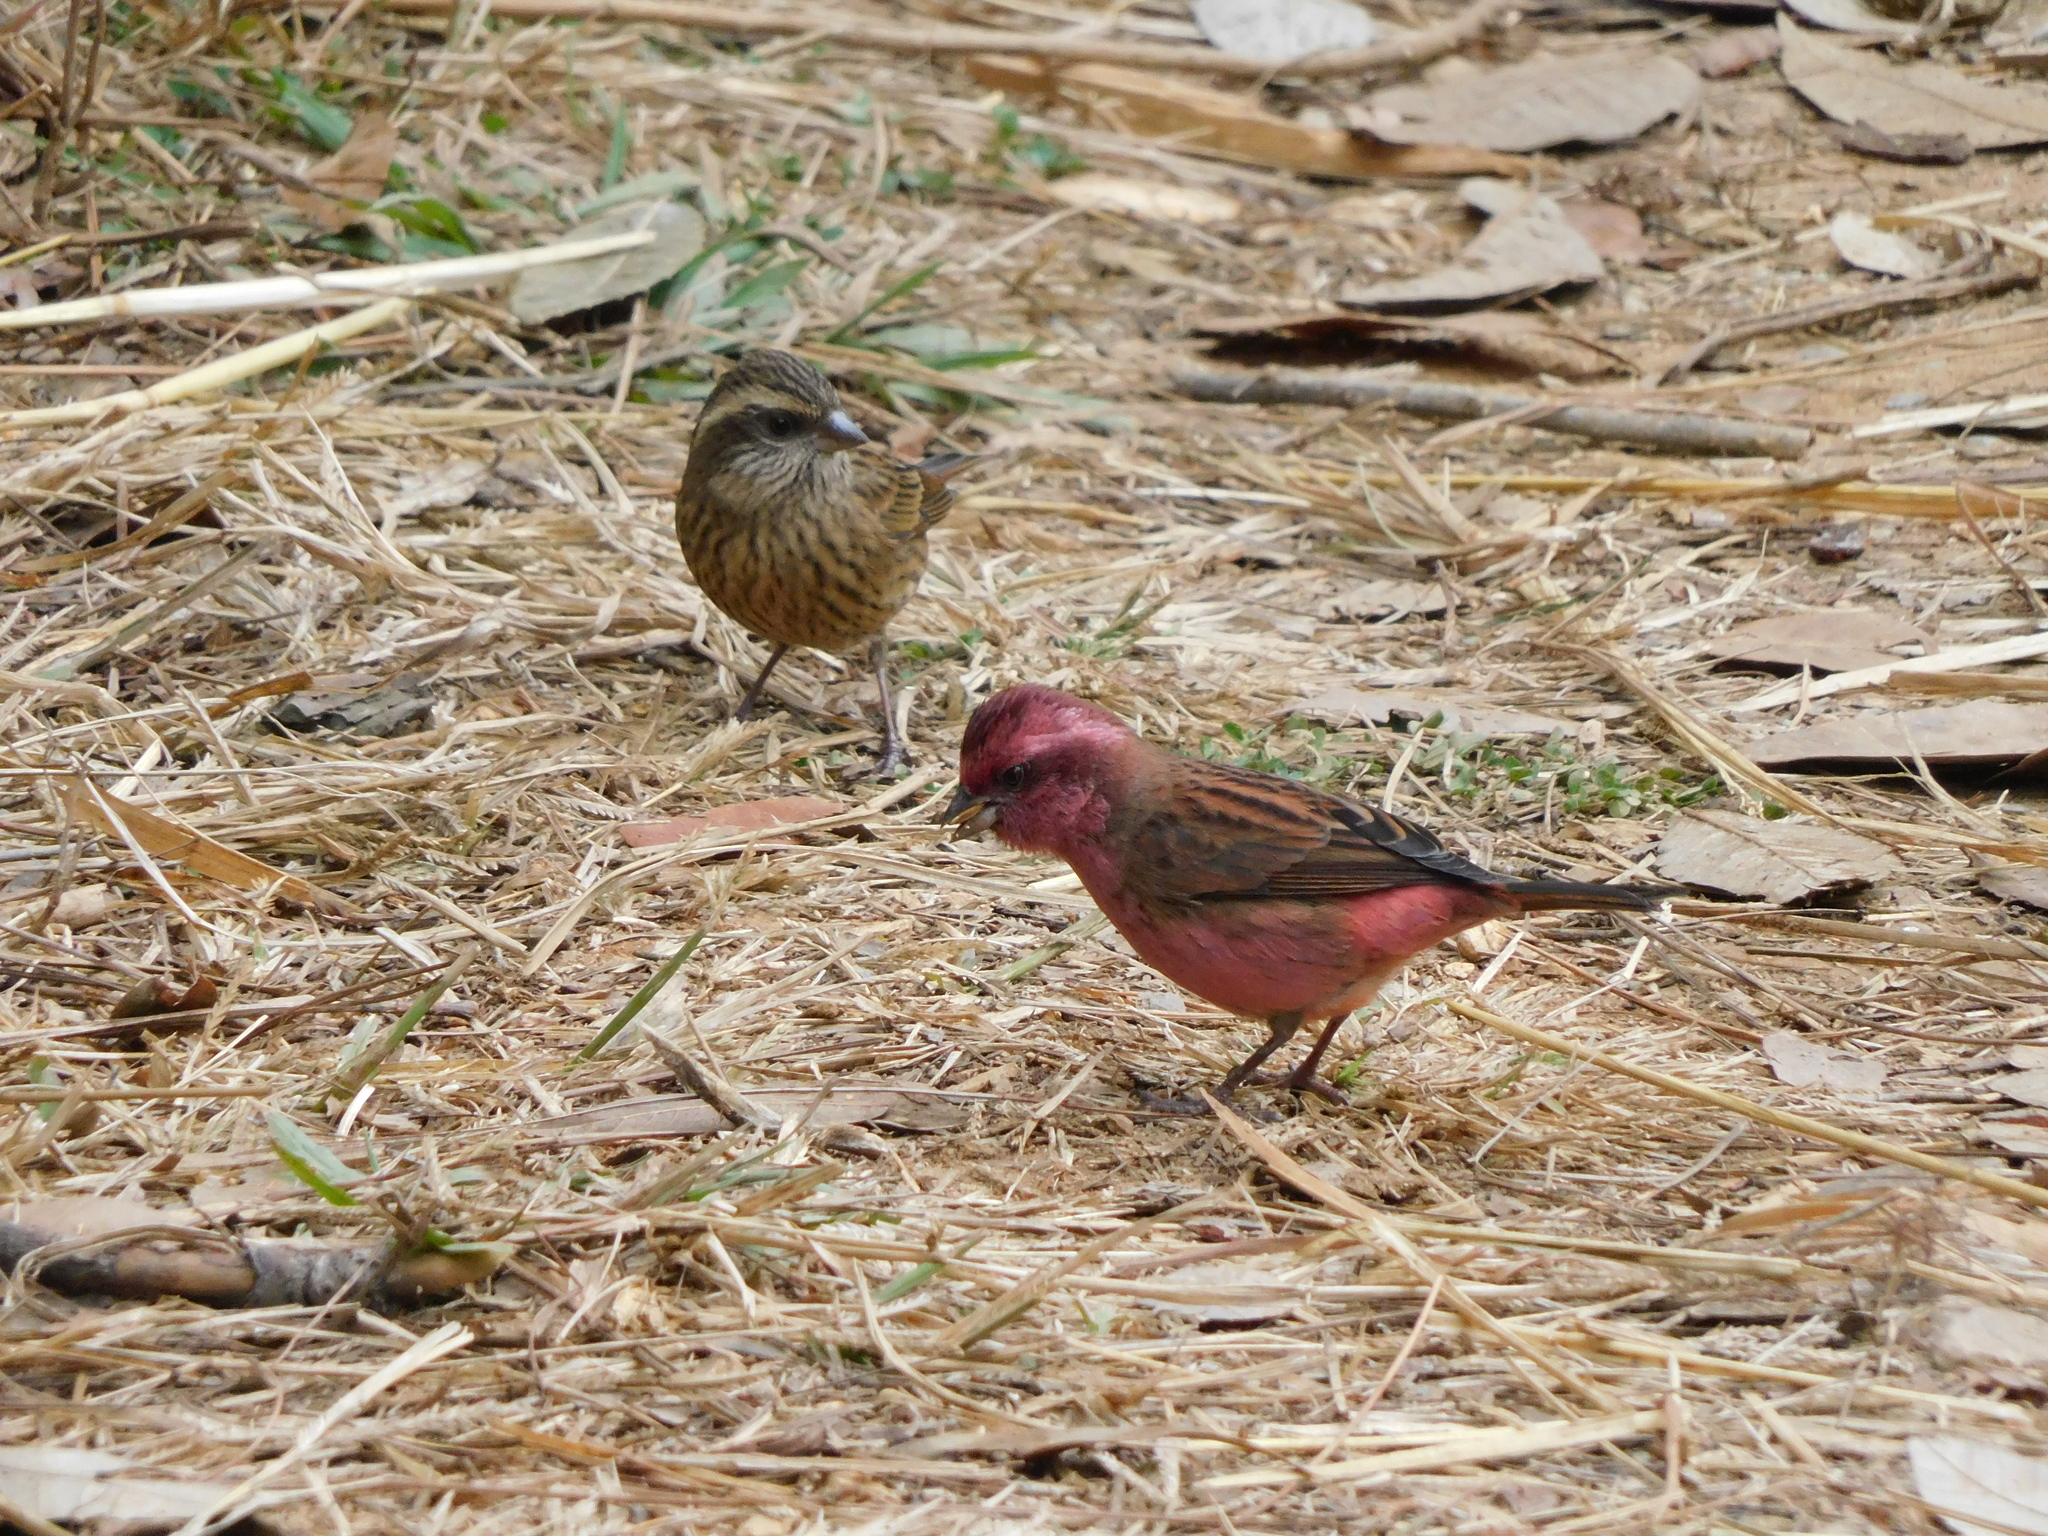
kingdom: Animalia
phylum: Chordata
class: Aves
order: Passeriformes
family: Fringillidae
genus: Carpodacus
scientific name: Carpodacus rodochroa
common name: Pink-browed rosefinch
